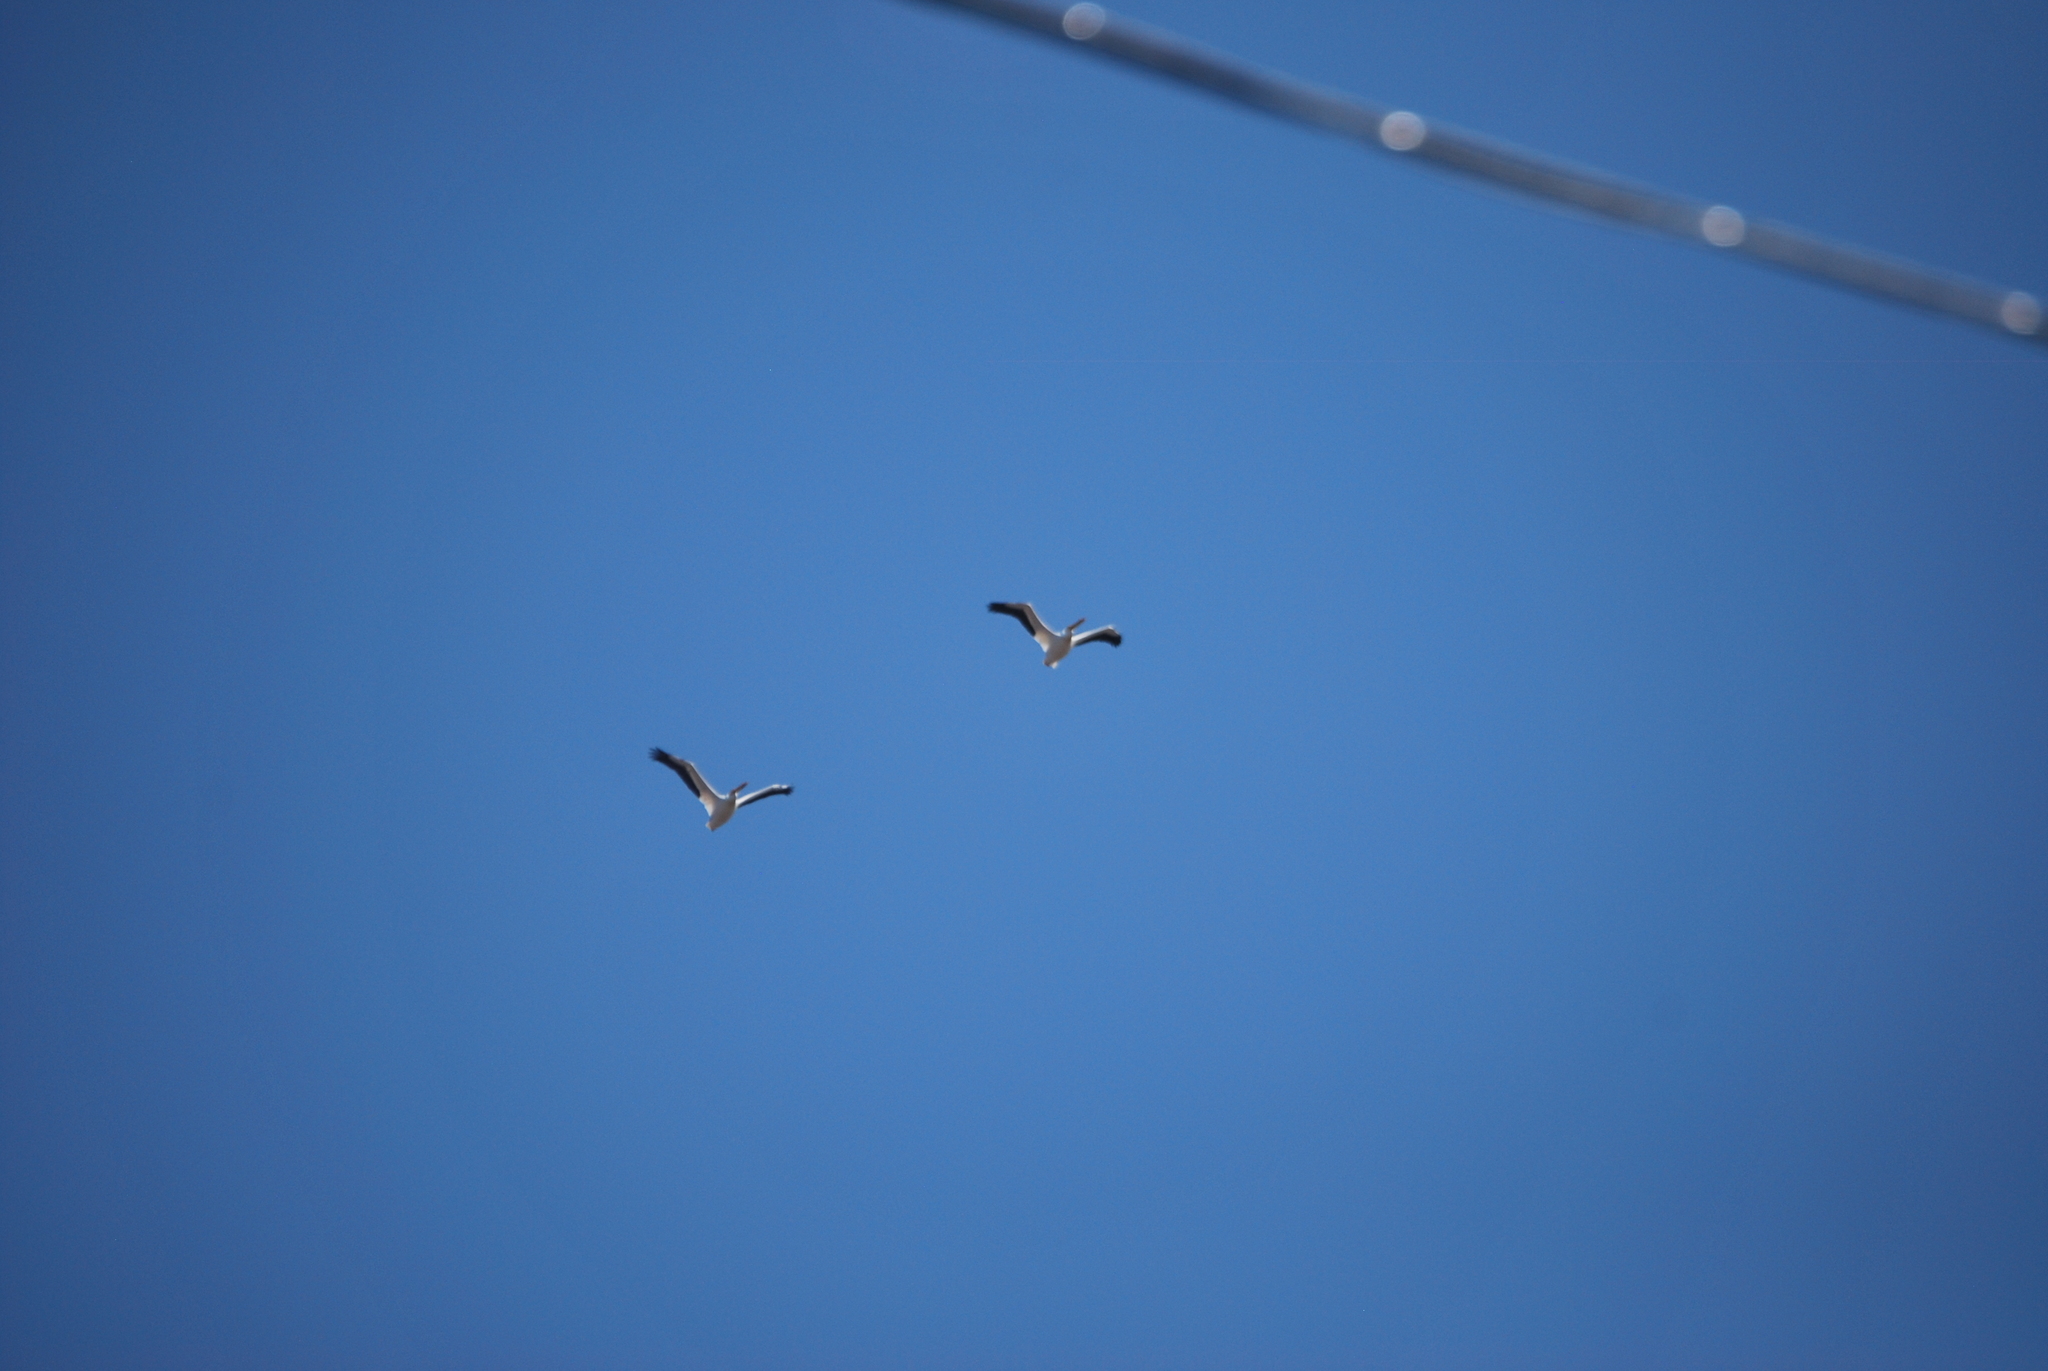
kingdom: Animalia
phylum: Chordata
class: Aves
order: Pelecaniformes
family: Pelecanidae
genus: Pelecanus
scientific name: Pelecanus erythrorhynchos
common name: American white pelican
